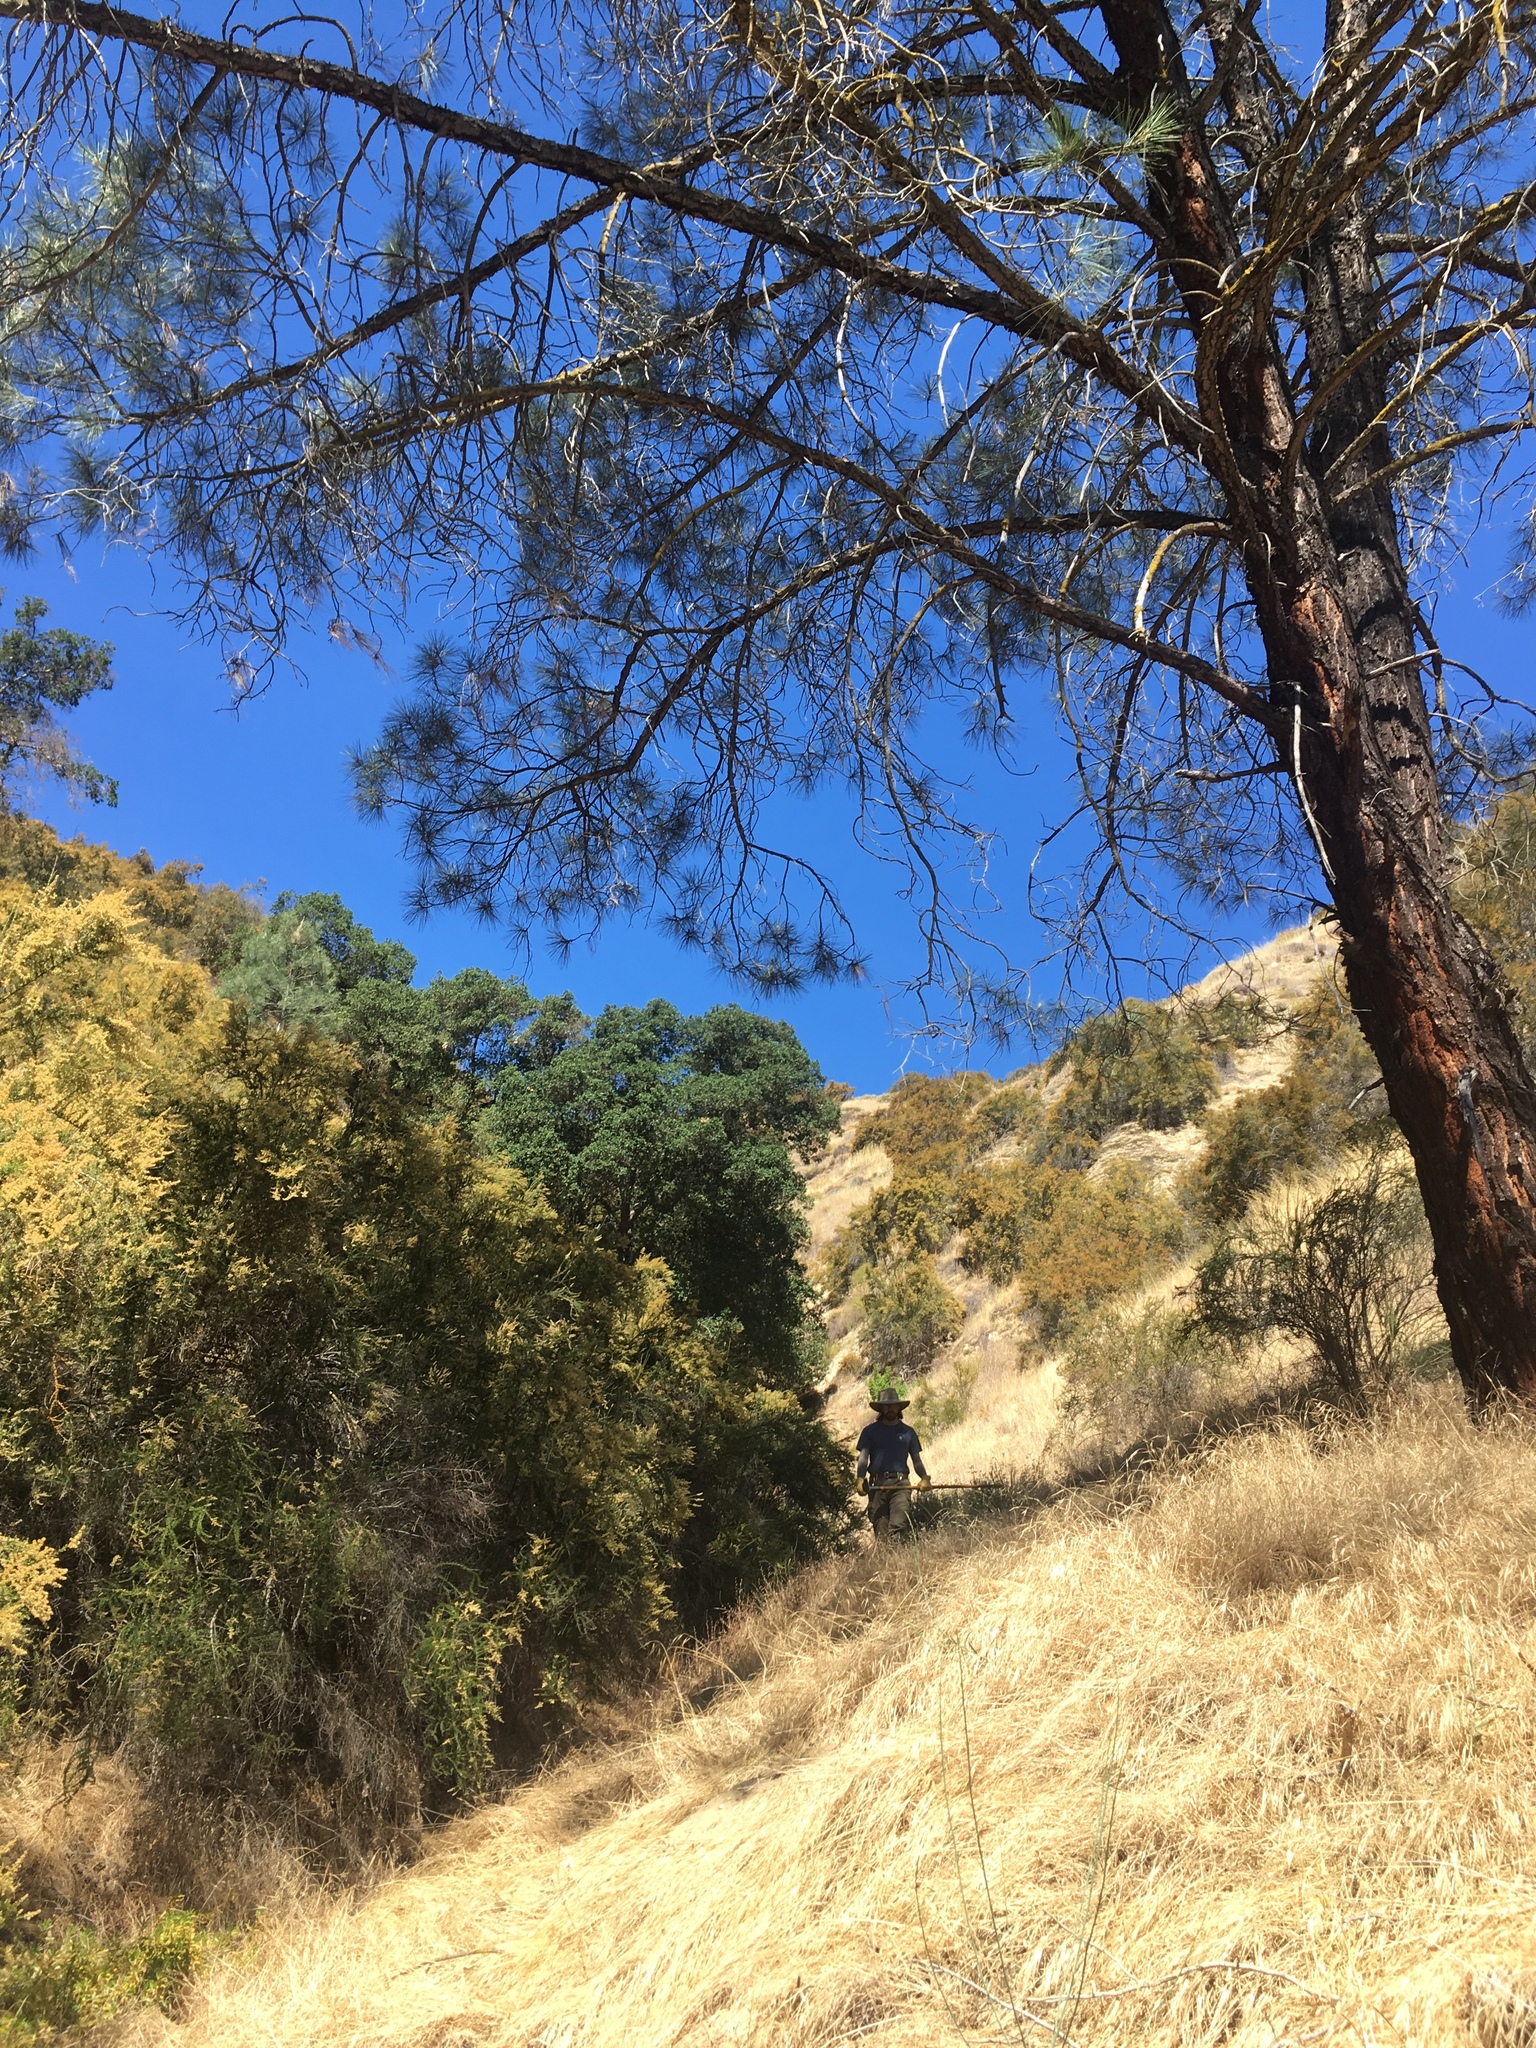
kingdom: Plantae
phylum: Tracheophyta
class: Pinopsida
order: Pinales
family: Pinaceae
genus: Pinus
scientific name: Pinus sabiniana
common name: Bull pine
